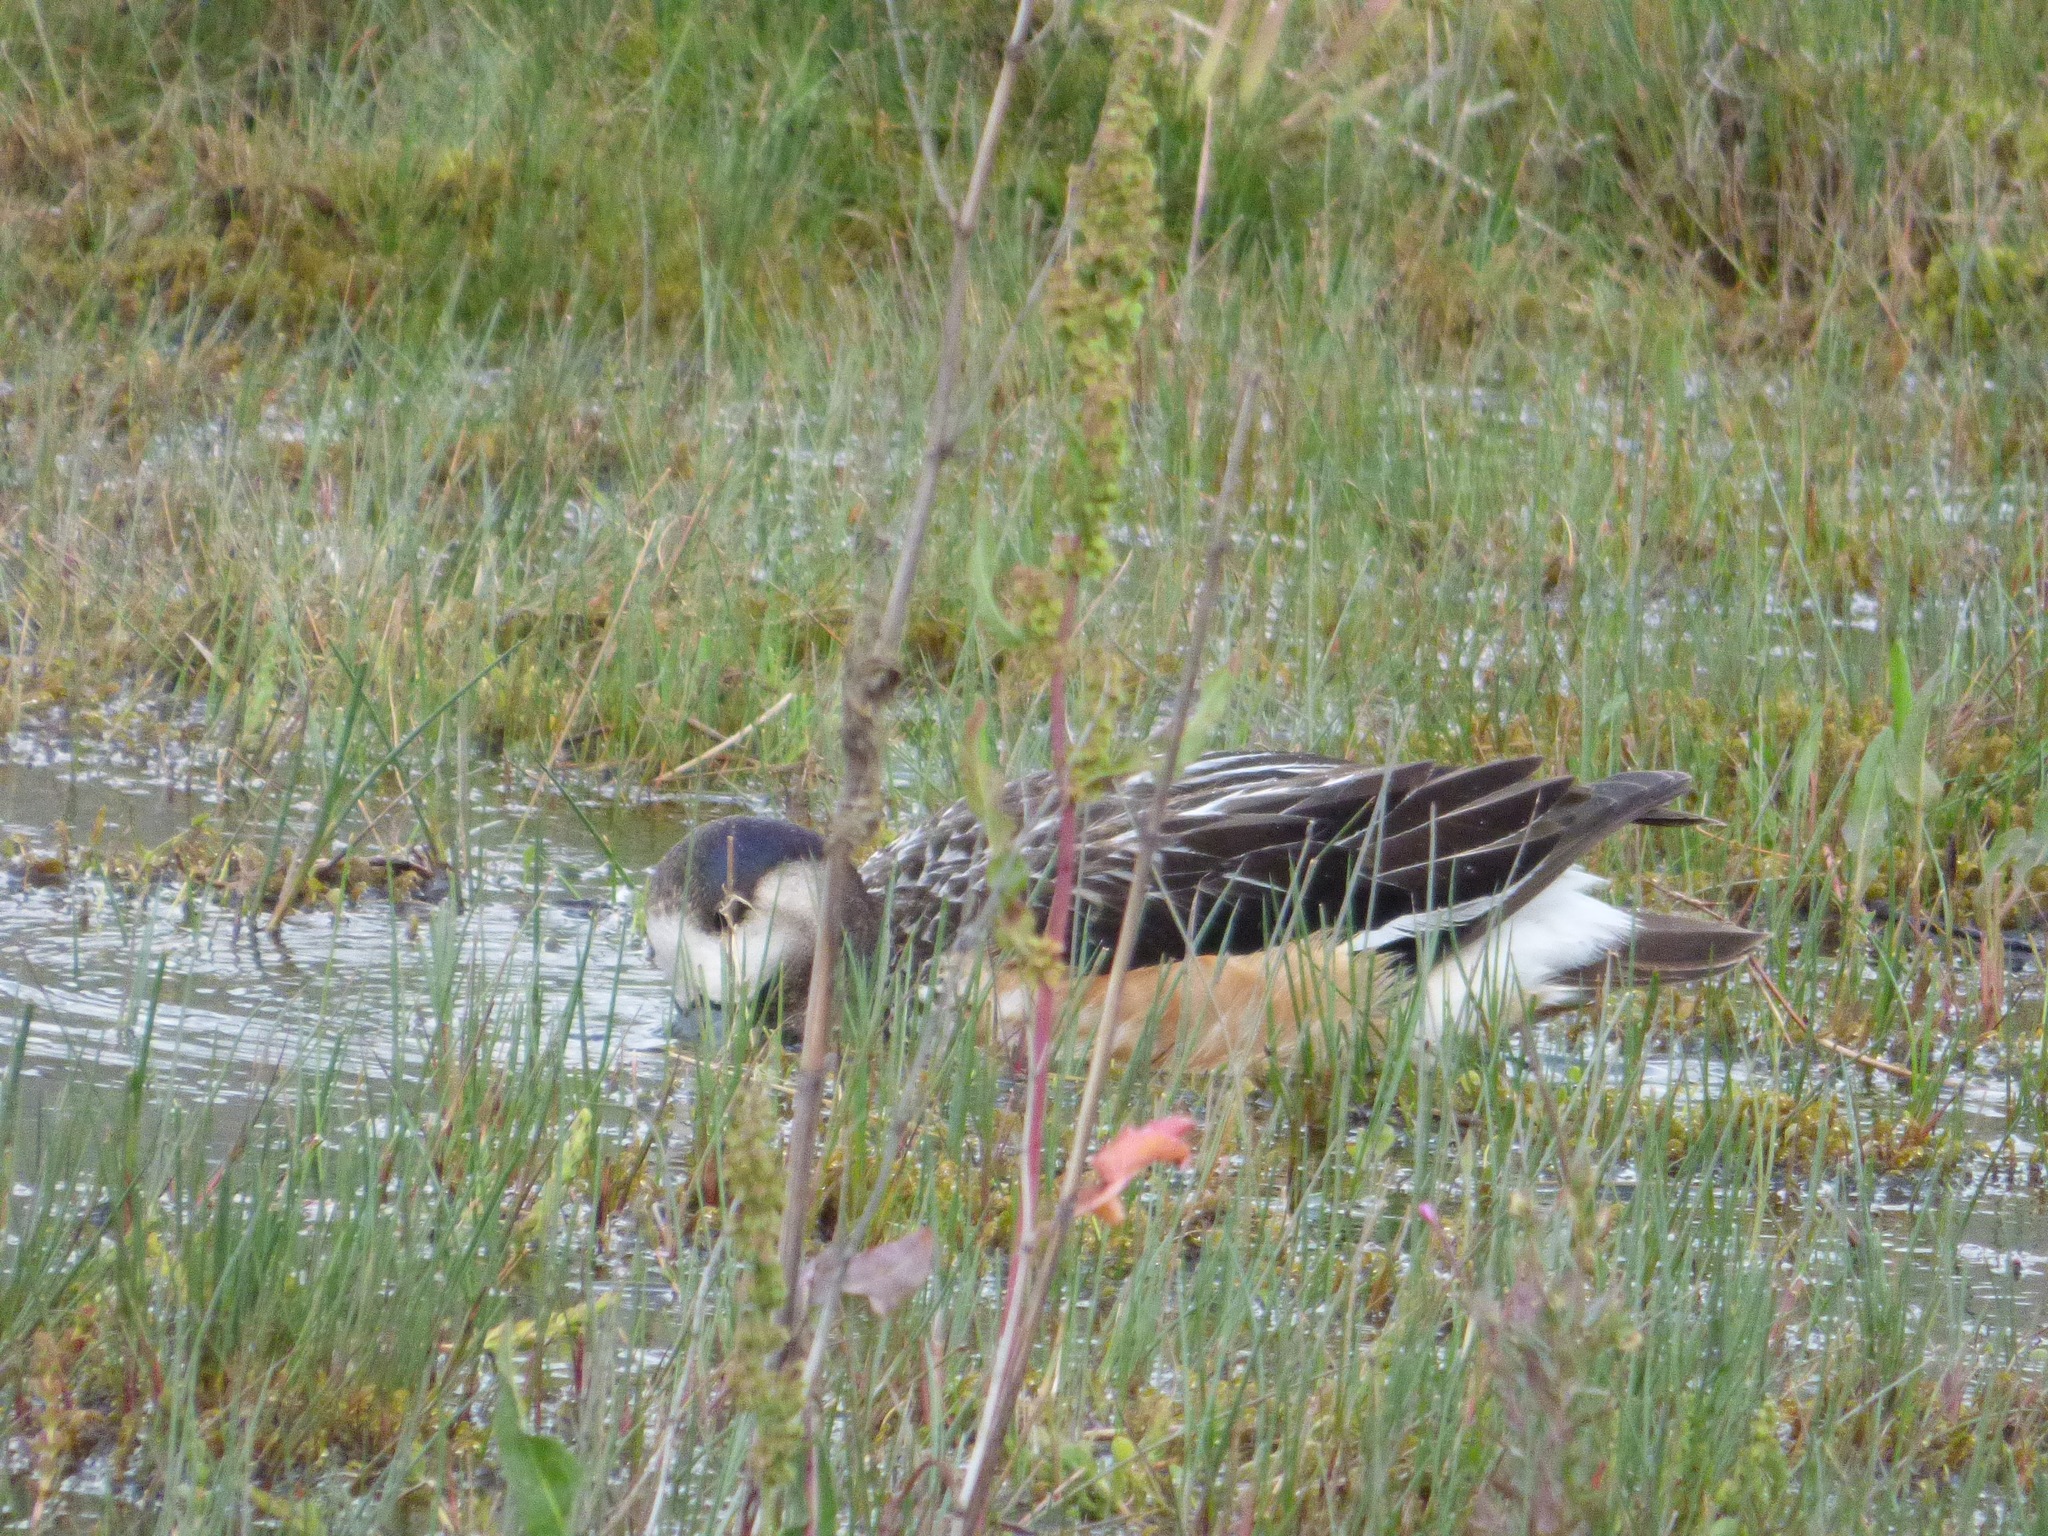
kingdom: Animalia
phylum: Chordata
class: Aves
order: Anseriformes
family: Anatidae
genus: Mareca
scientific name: Mareca sibilatrix
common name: Chiloe wigeon
